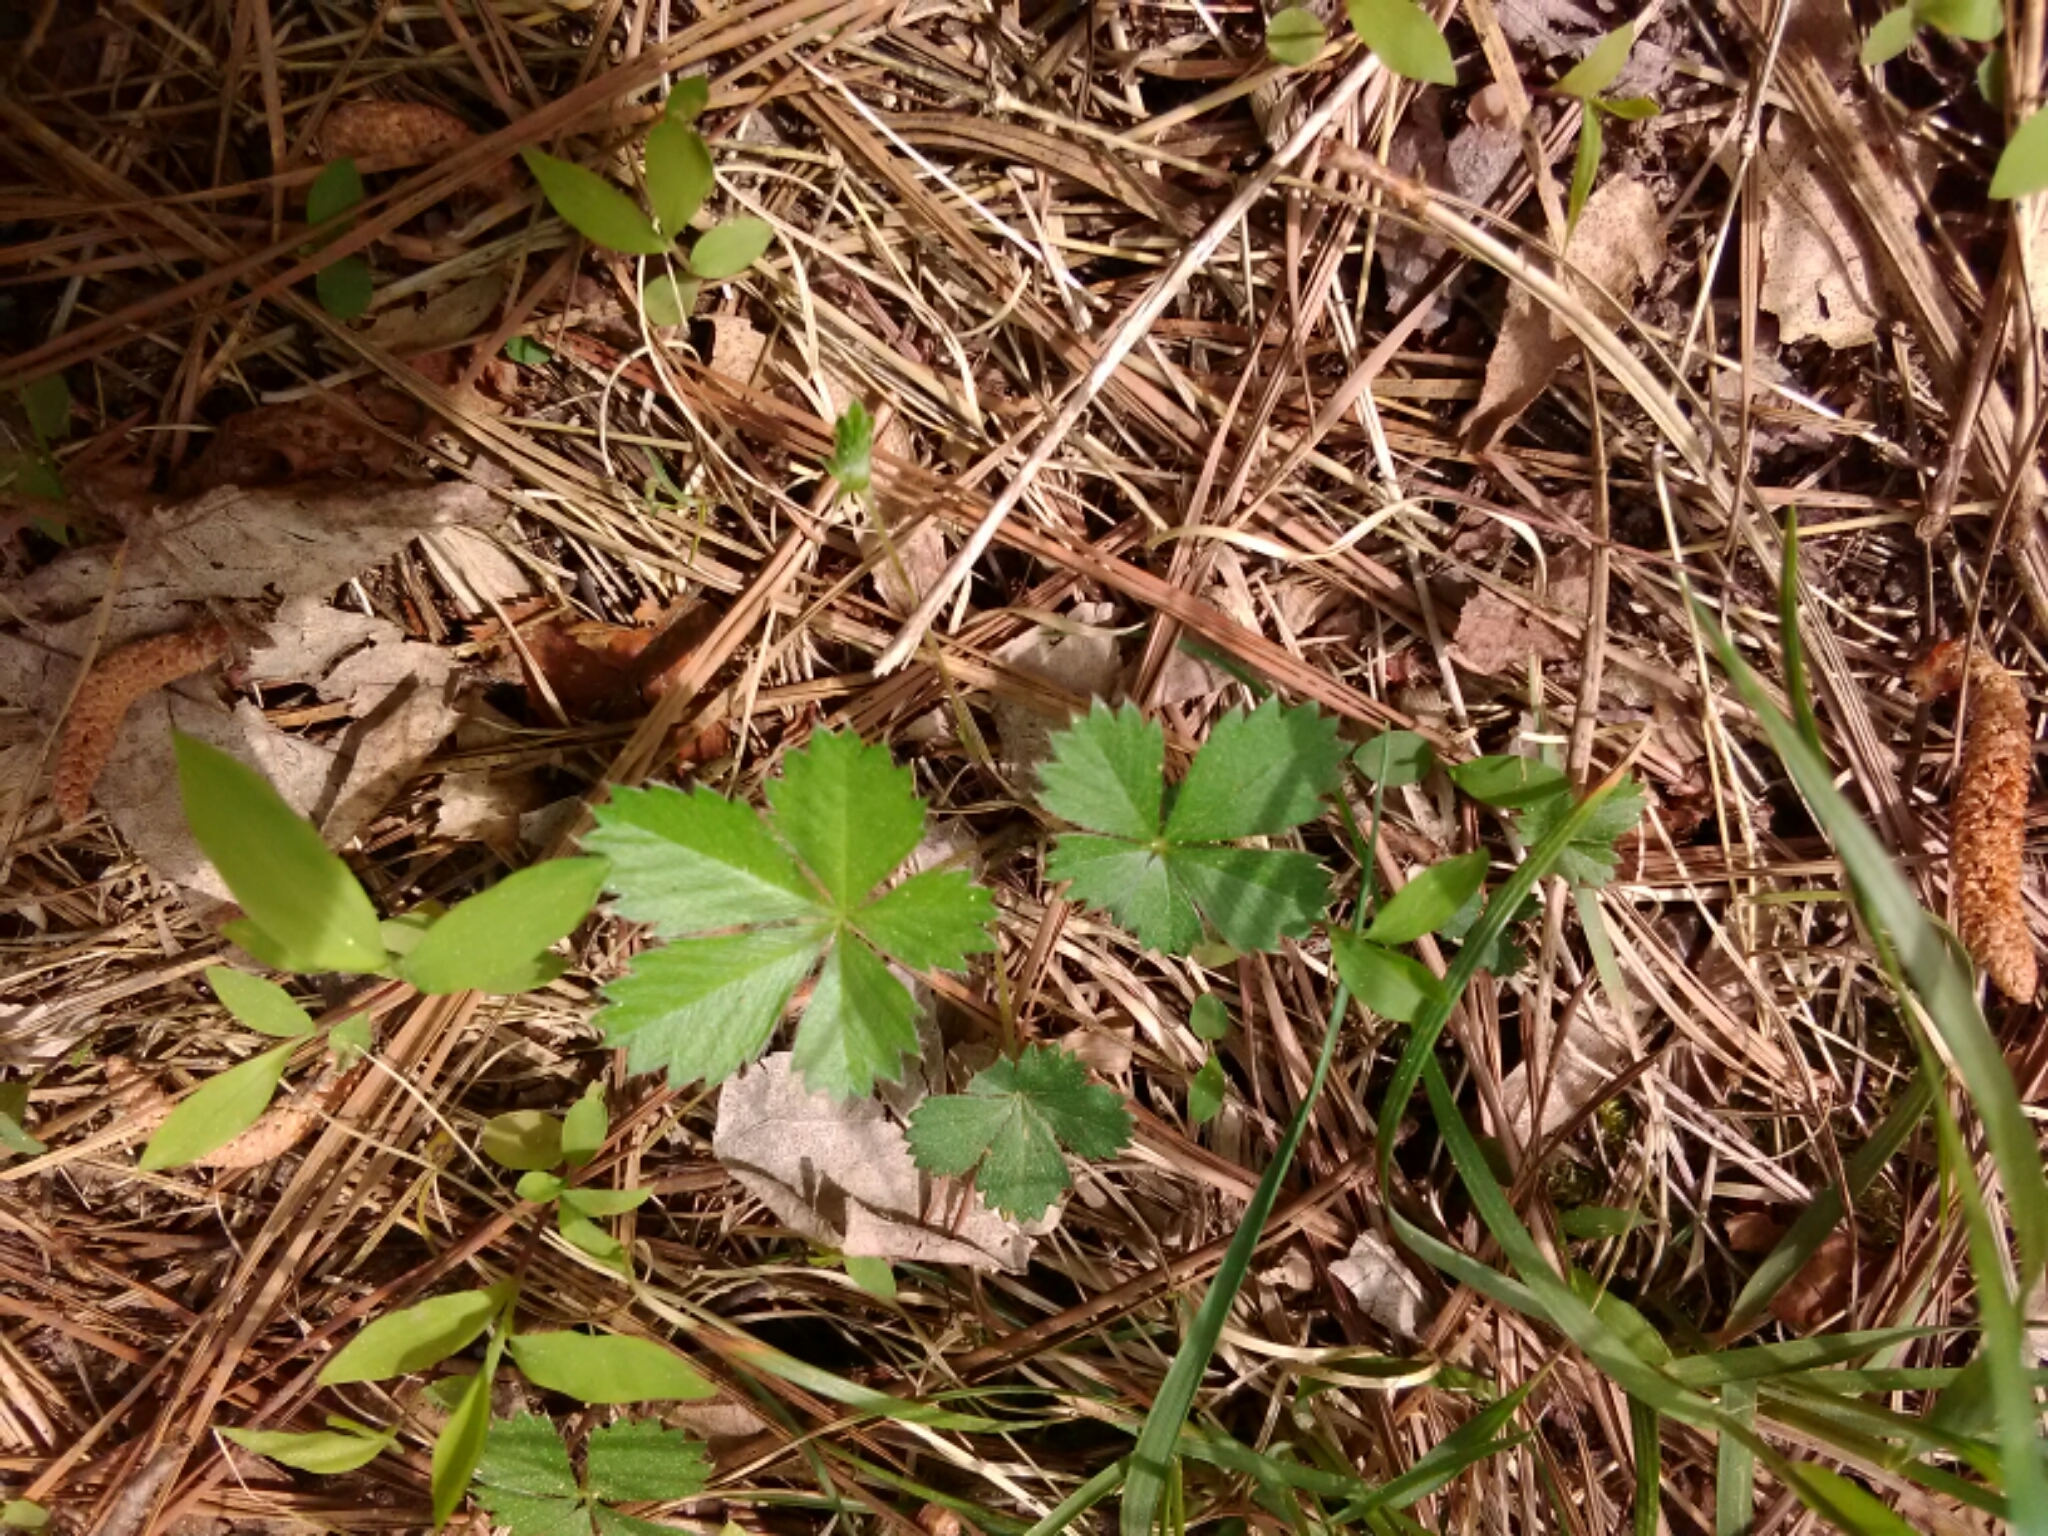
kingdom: Plantae
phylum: Tracheophyta
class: Magnoliopsida
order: Rosales
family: Rosaceae
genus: Potentilla
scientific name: Potentilla canadensis
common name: Canada cinquefoil
